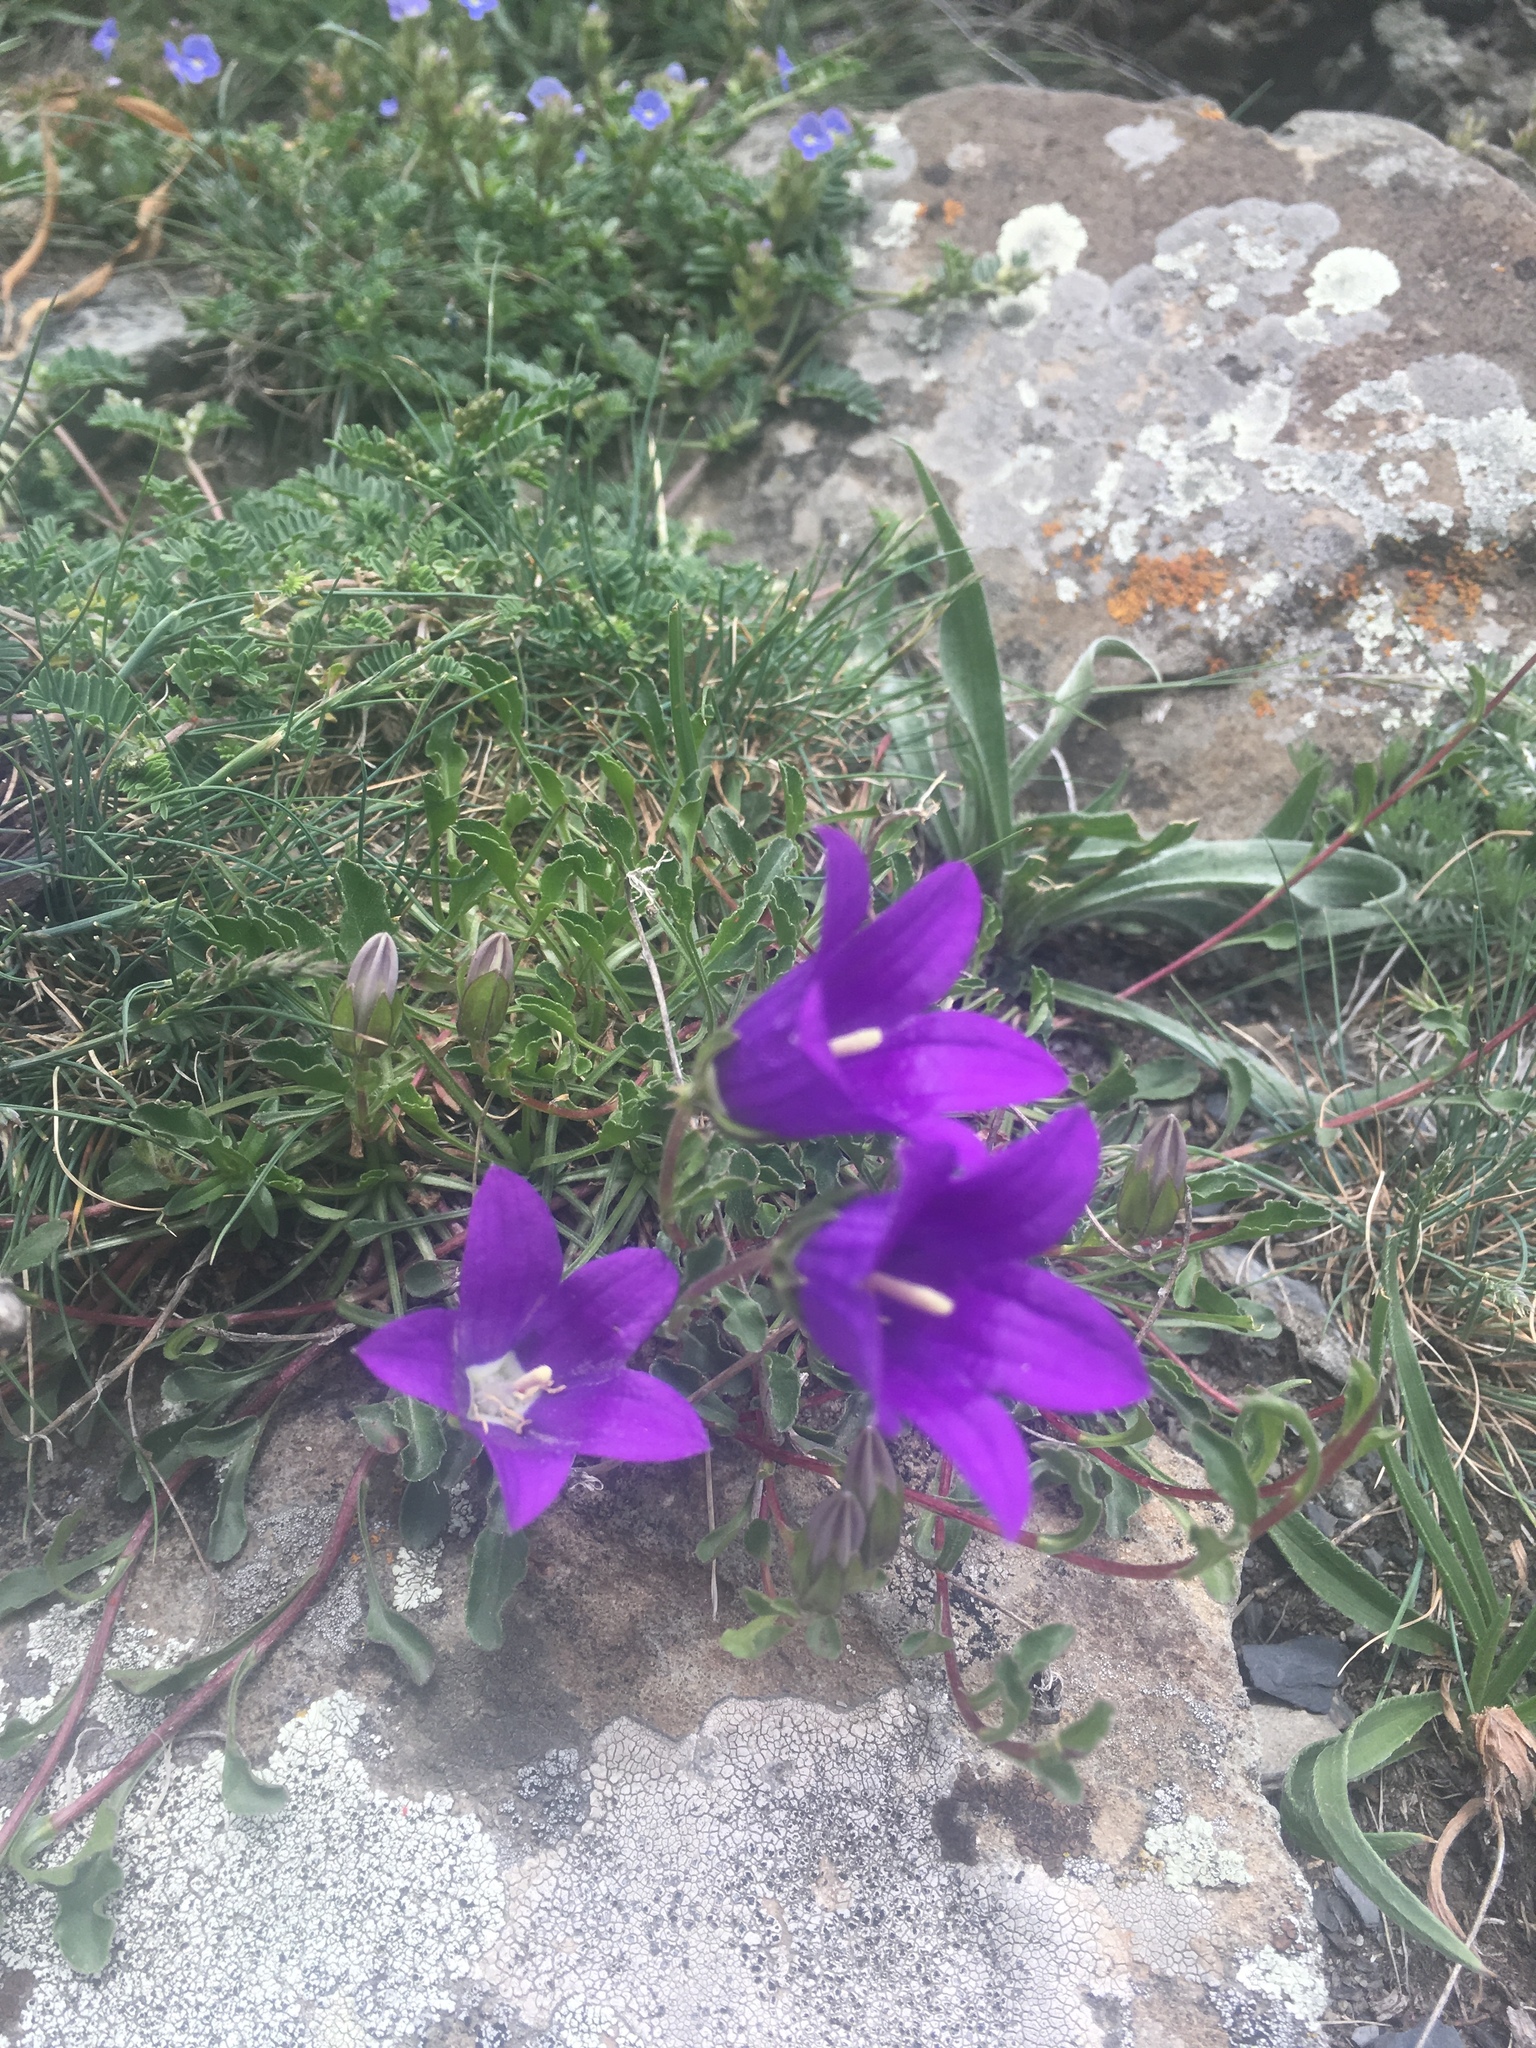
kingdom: Plantae
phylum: Tracheophyta
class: Magnoliopsida
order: Asterales
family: Campanulaceae
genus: Campanula
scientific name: Campanula saxifraga
